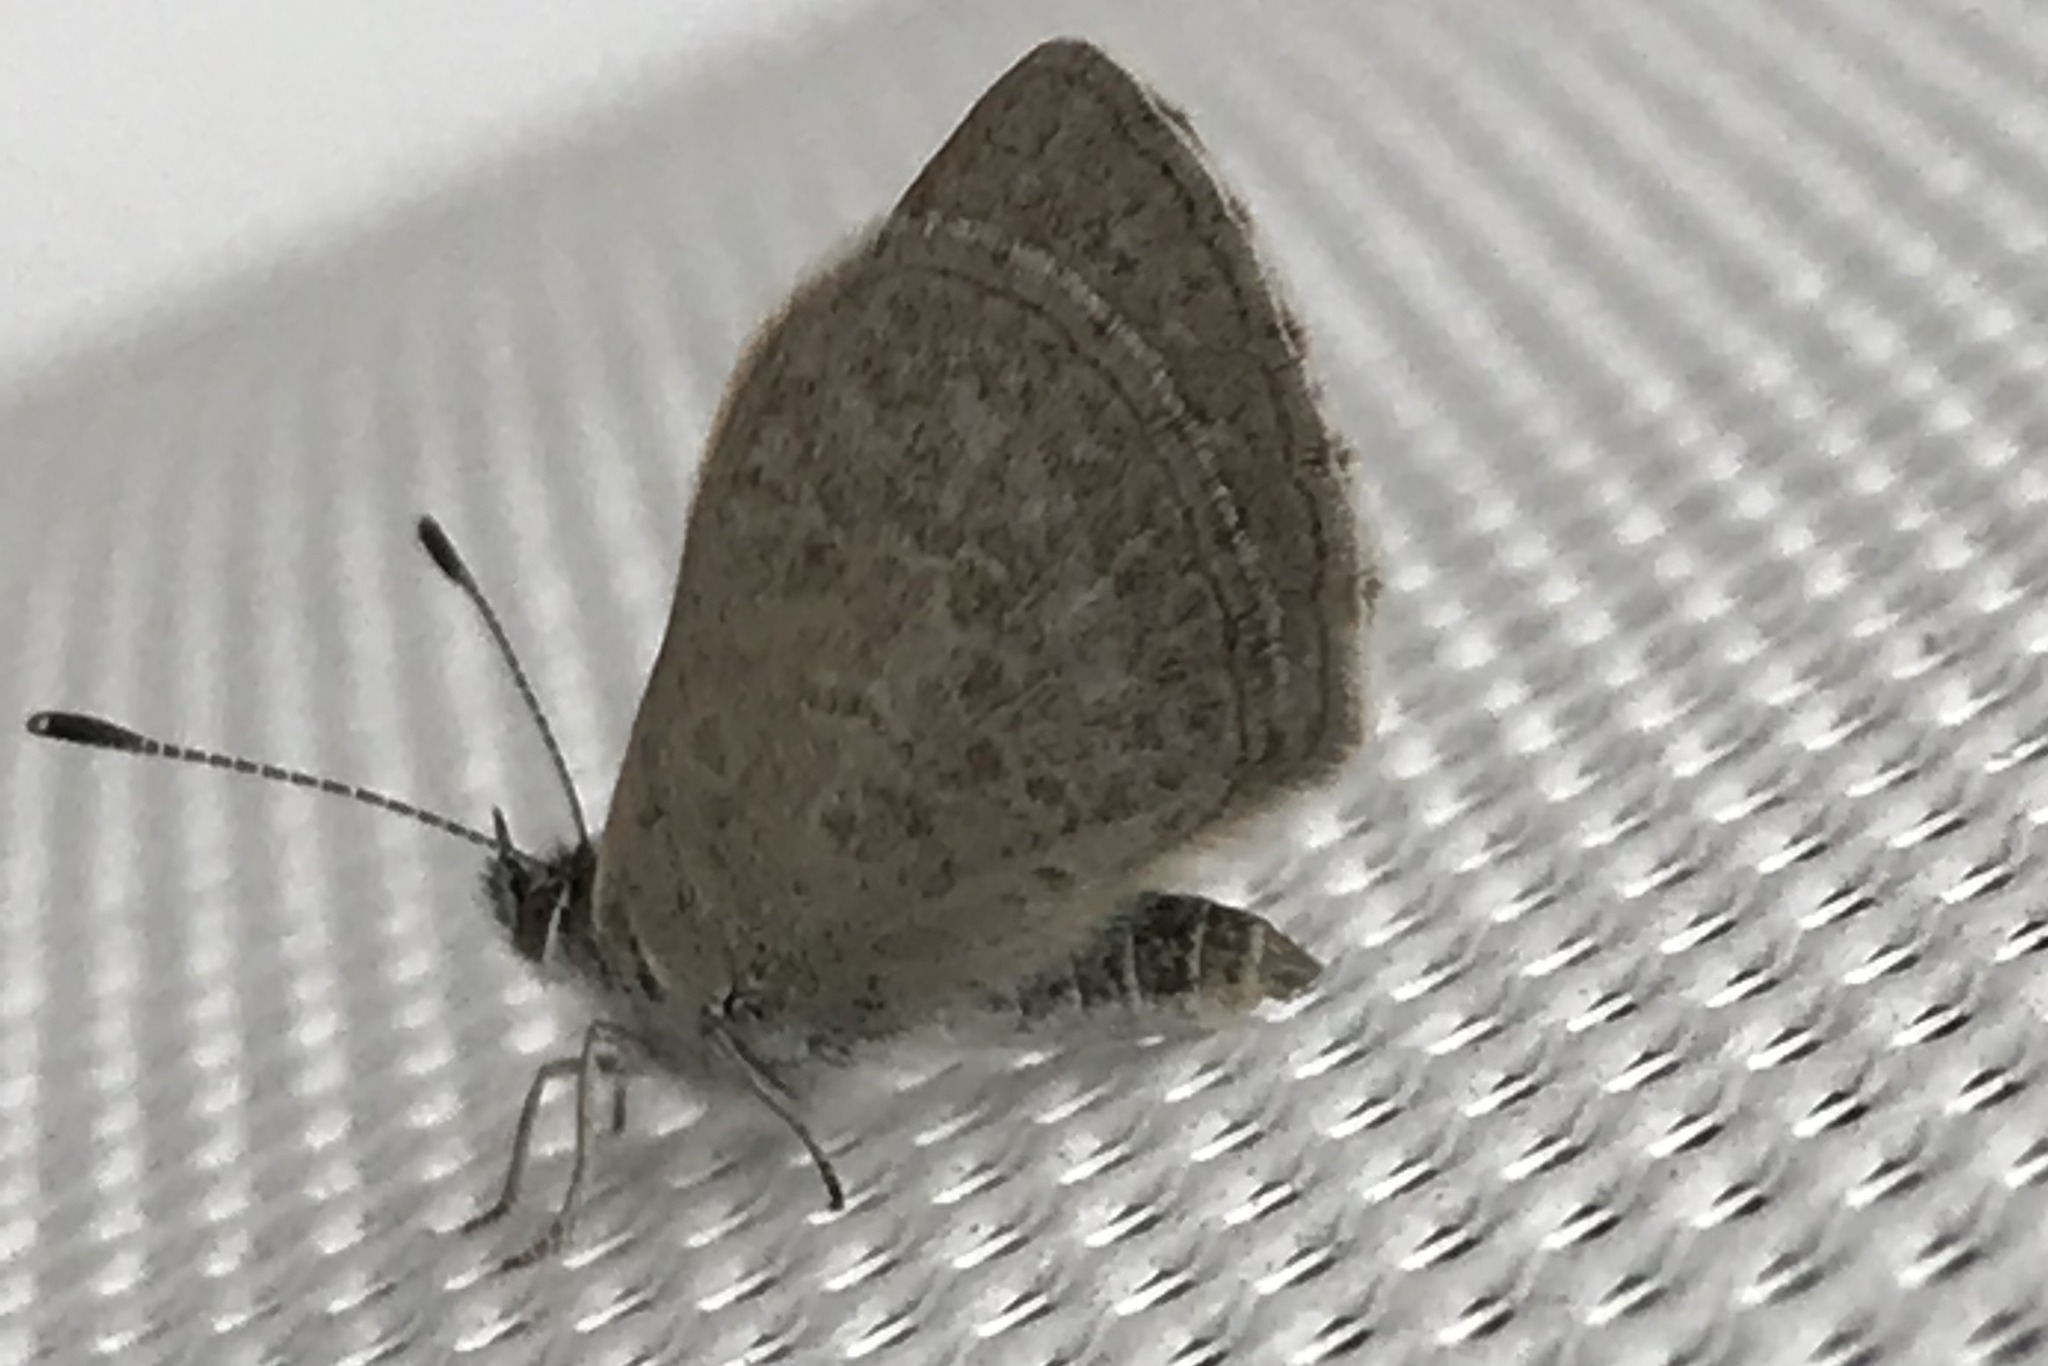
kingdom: Animalia
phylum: Arthropoda
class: Insecta
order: Lepidoptera
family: Lycaenidae
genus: Zizina
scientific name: Zizina labradus
